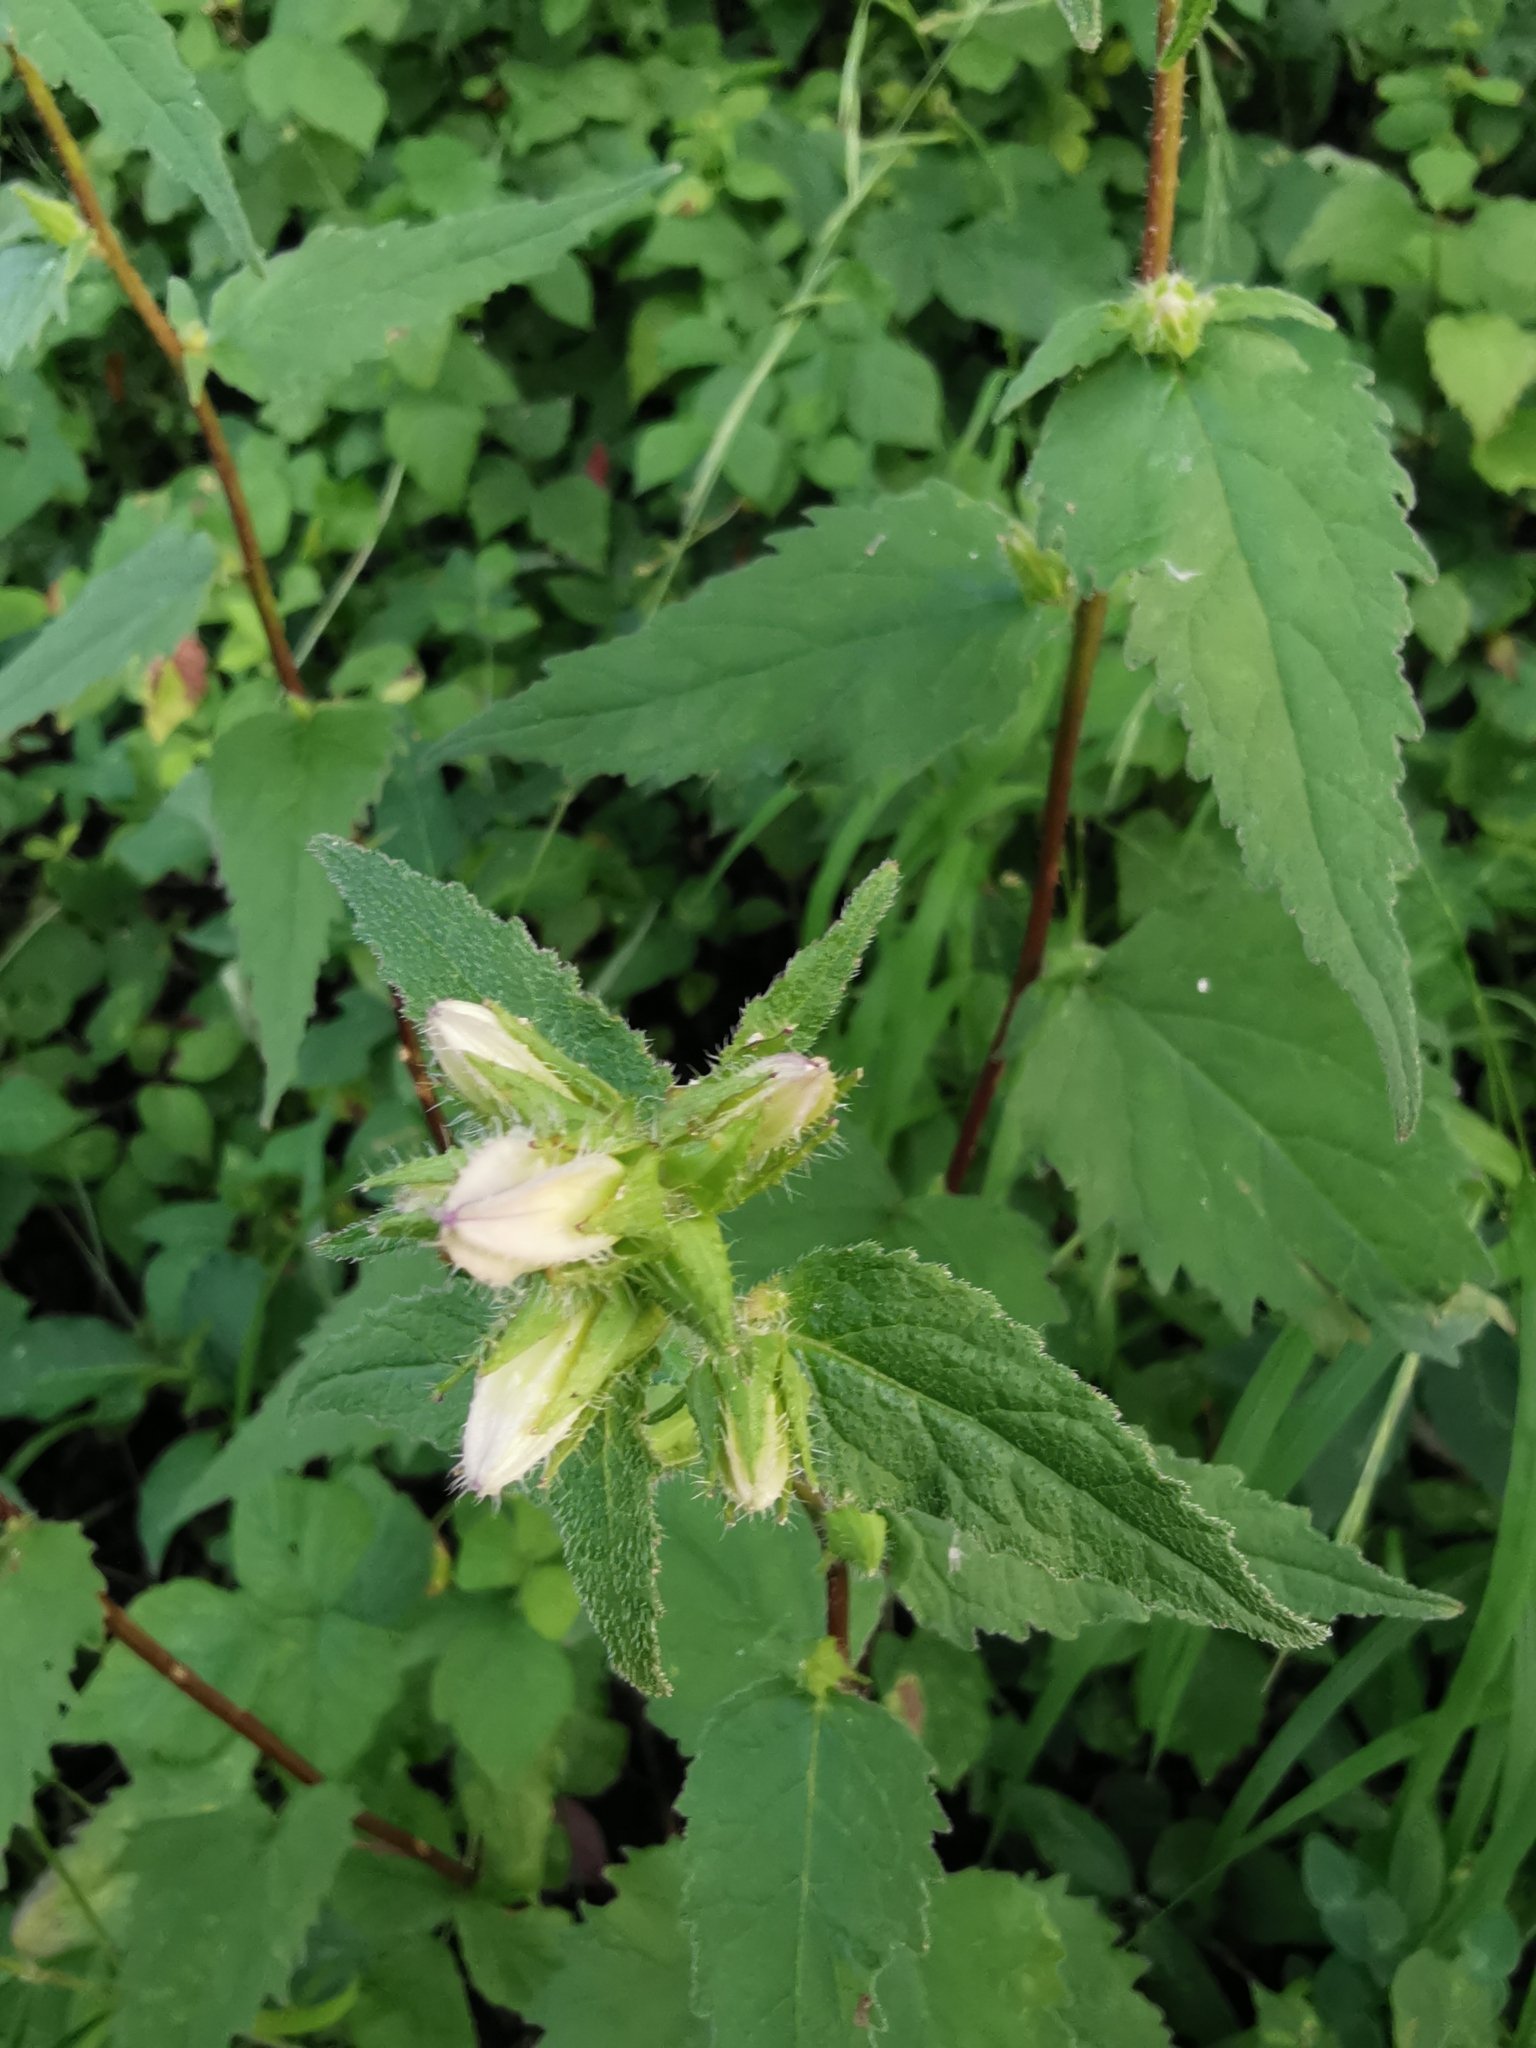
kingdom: Plantae
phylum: Tracheophyta
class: Magnoliopsida
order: Asterales
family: Campanulaceae
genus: Campanula
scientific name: Campanula trachelium
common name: Nettle-leaved bellflower
